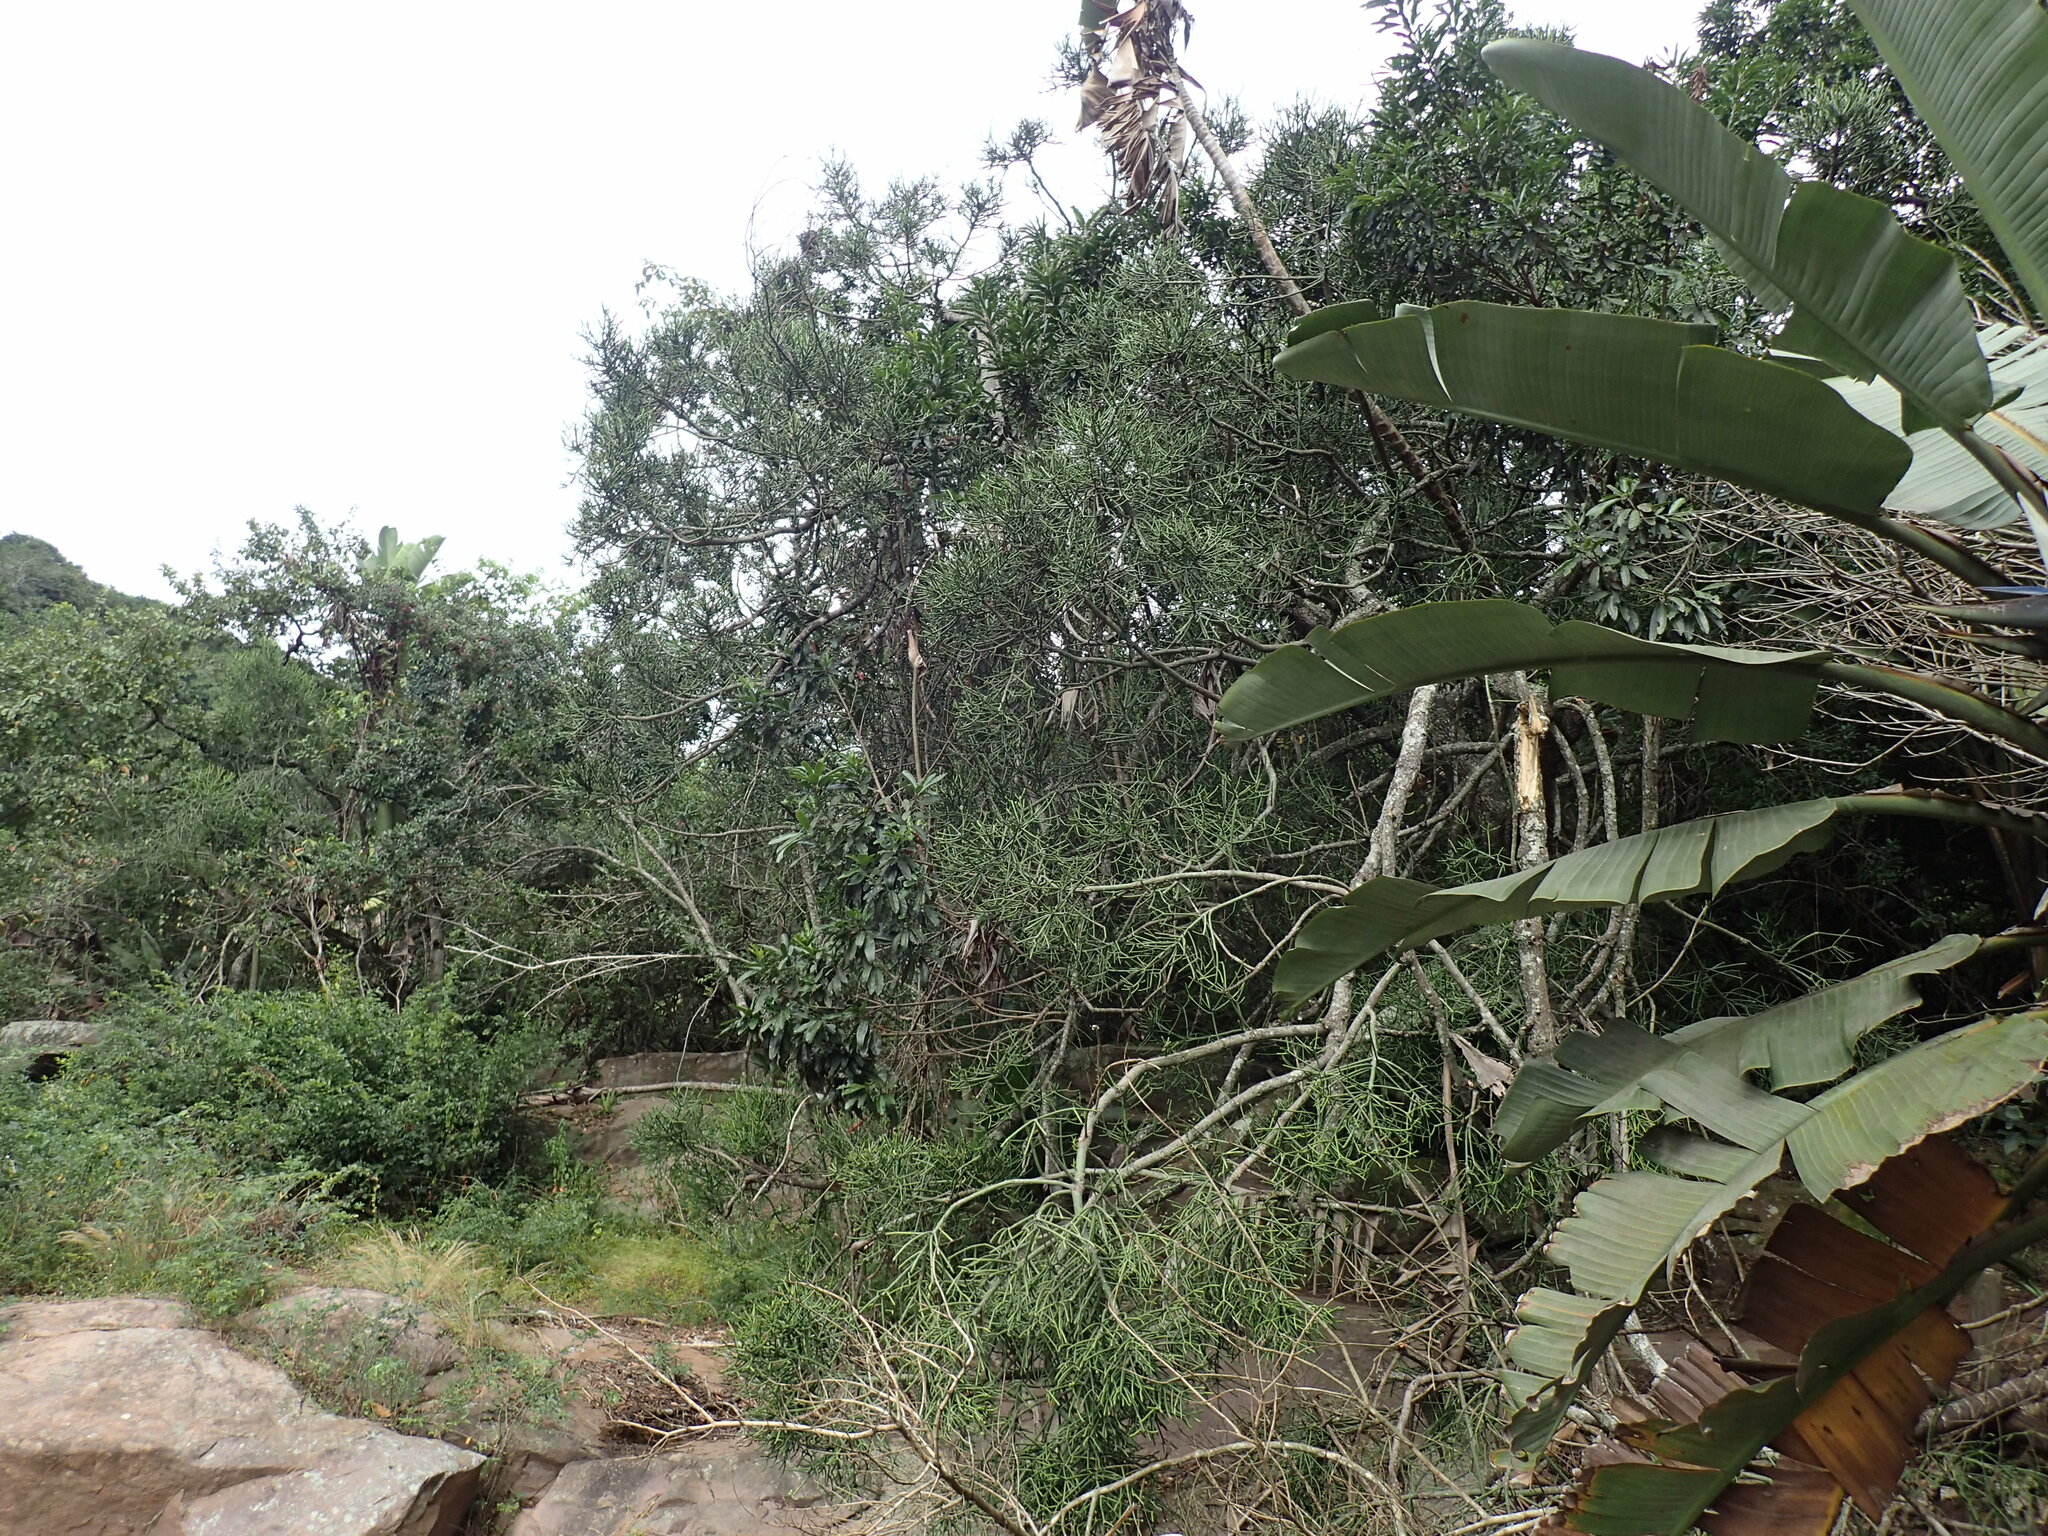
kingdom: Plantae
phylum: Tracheophyta
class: Magnoliopsida
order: Malpighiales
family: Euphorbiaceae
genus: Euphorbia
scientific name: Euphorbia tirucalli
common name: Indiantree spurge
